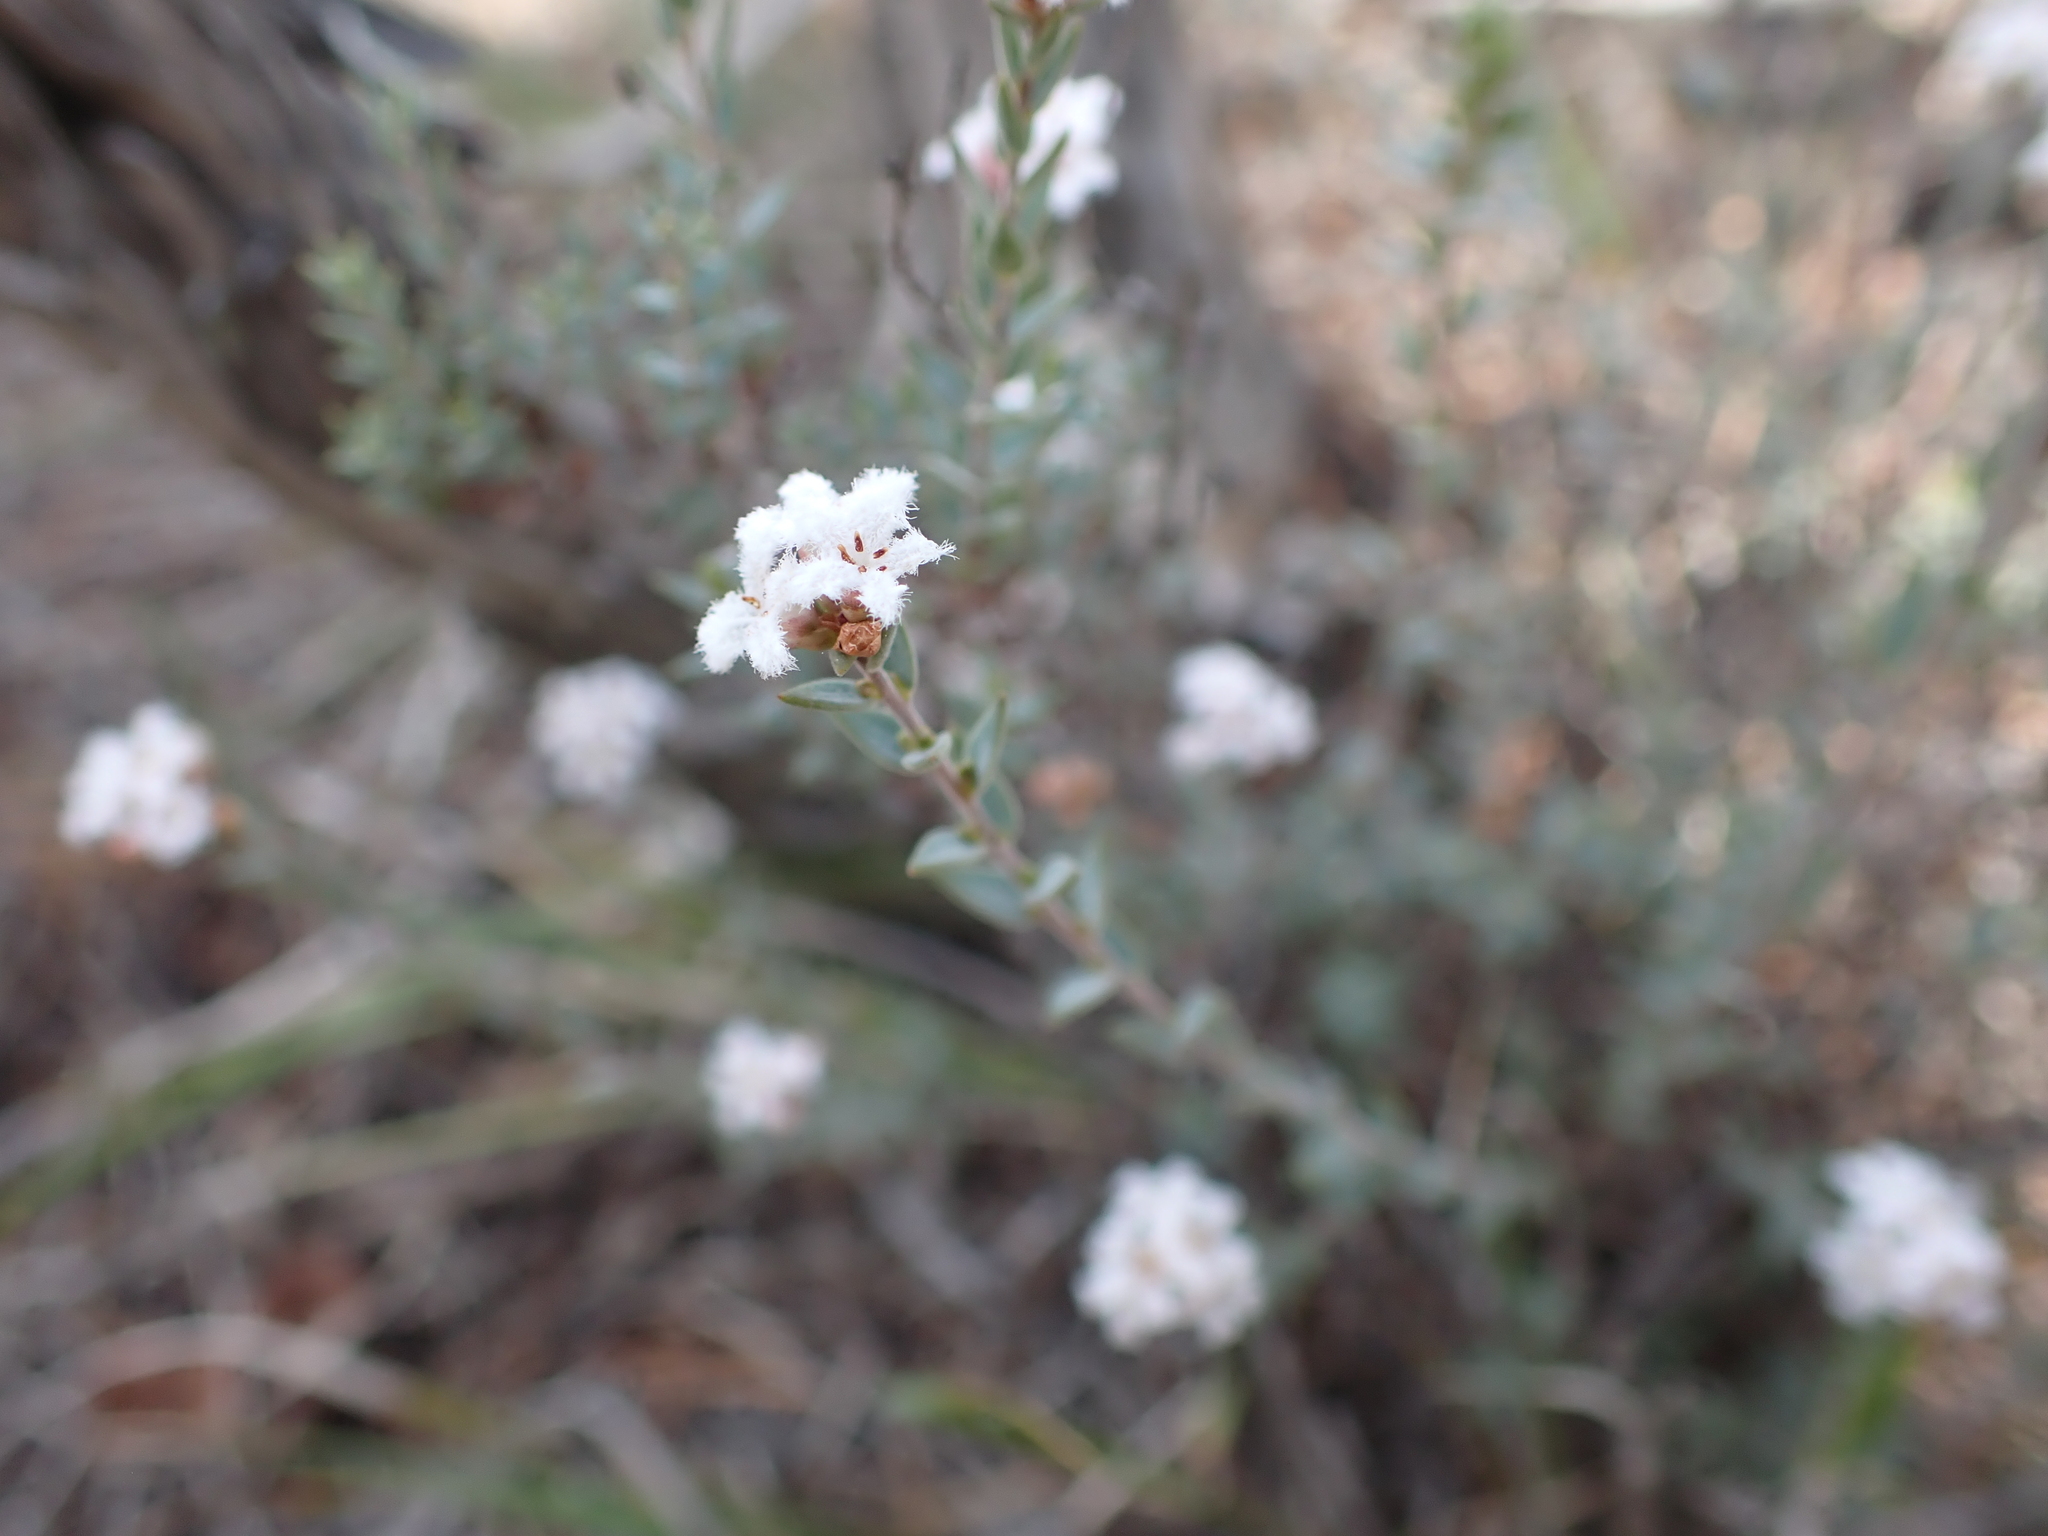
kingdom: Plantae
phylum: Tracheophyta
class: Magnoliopsida
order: Ericales
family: Ericaceae
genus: Leucopogon
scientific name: Leucopogon virgatus
